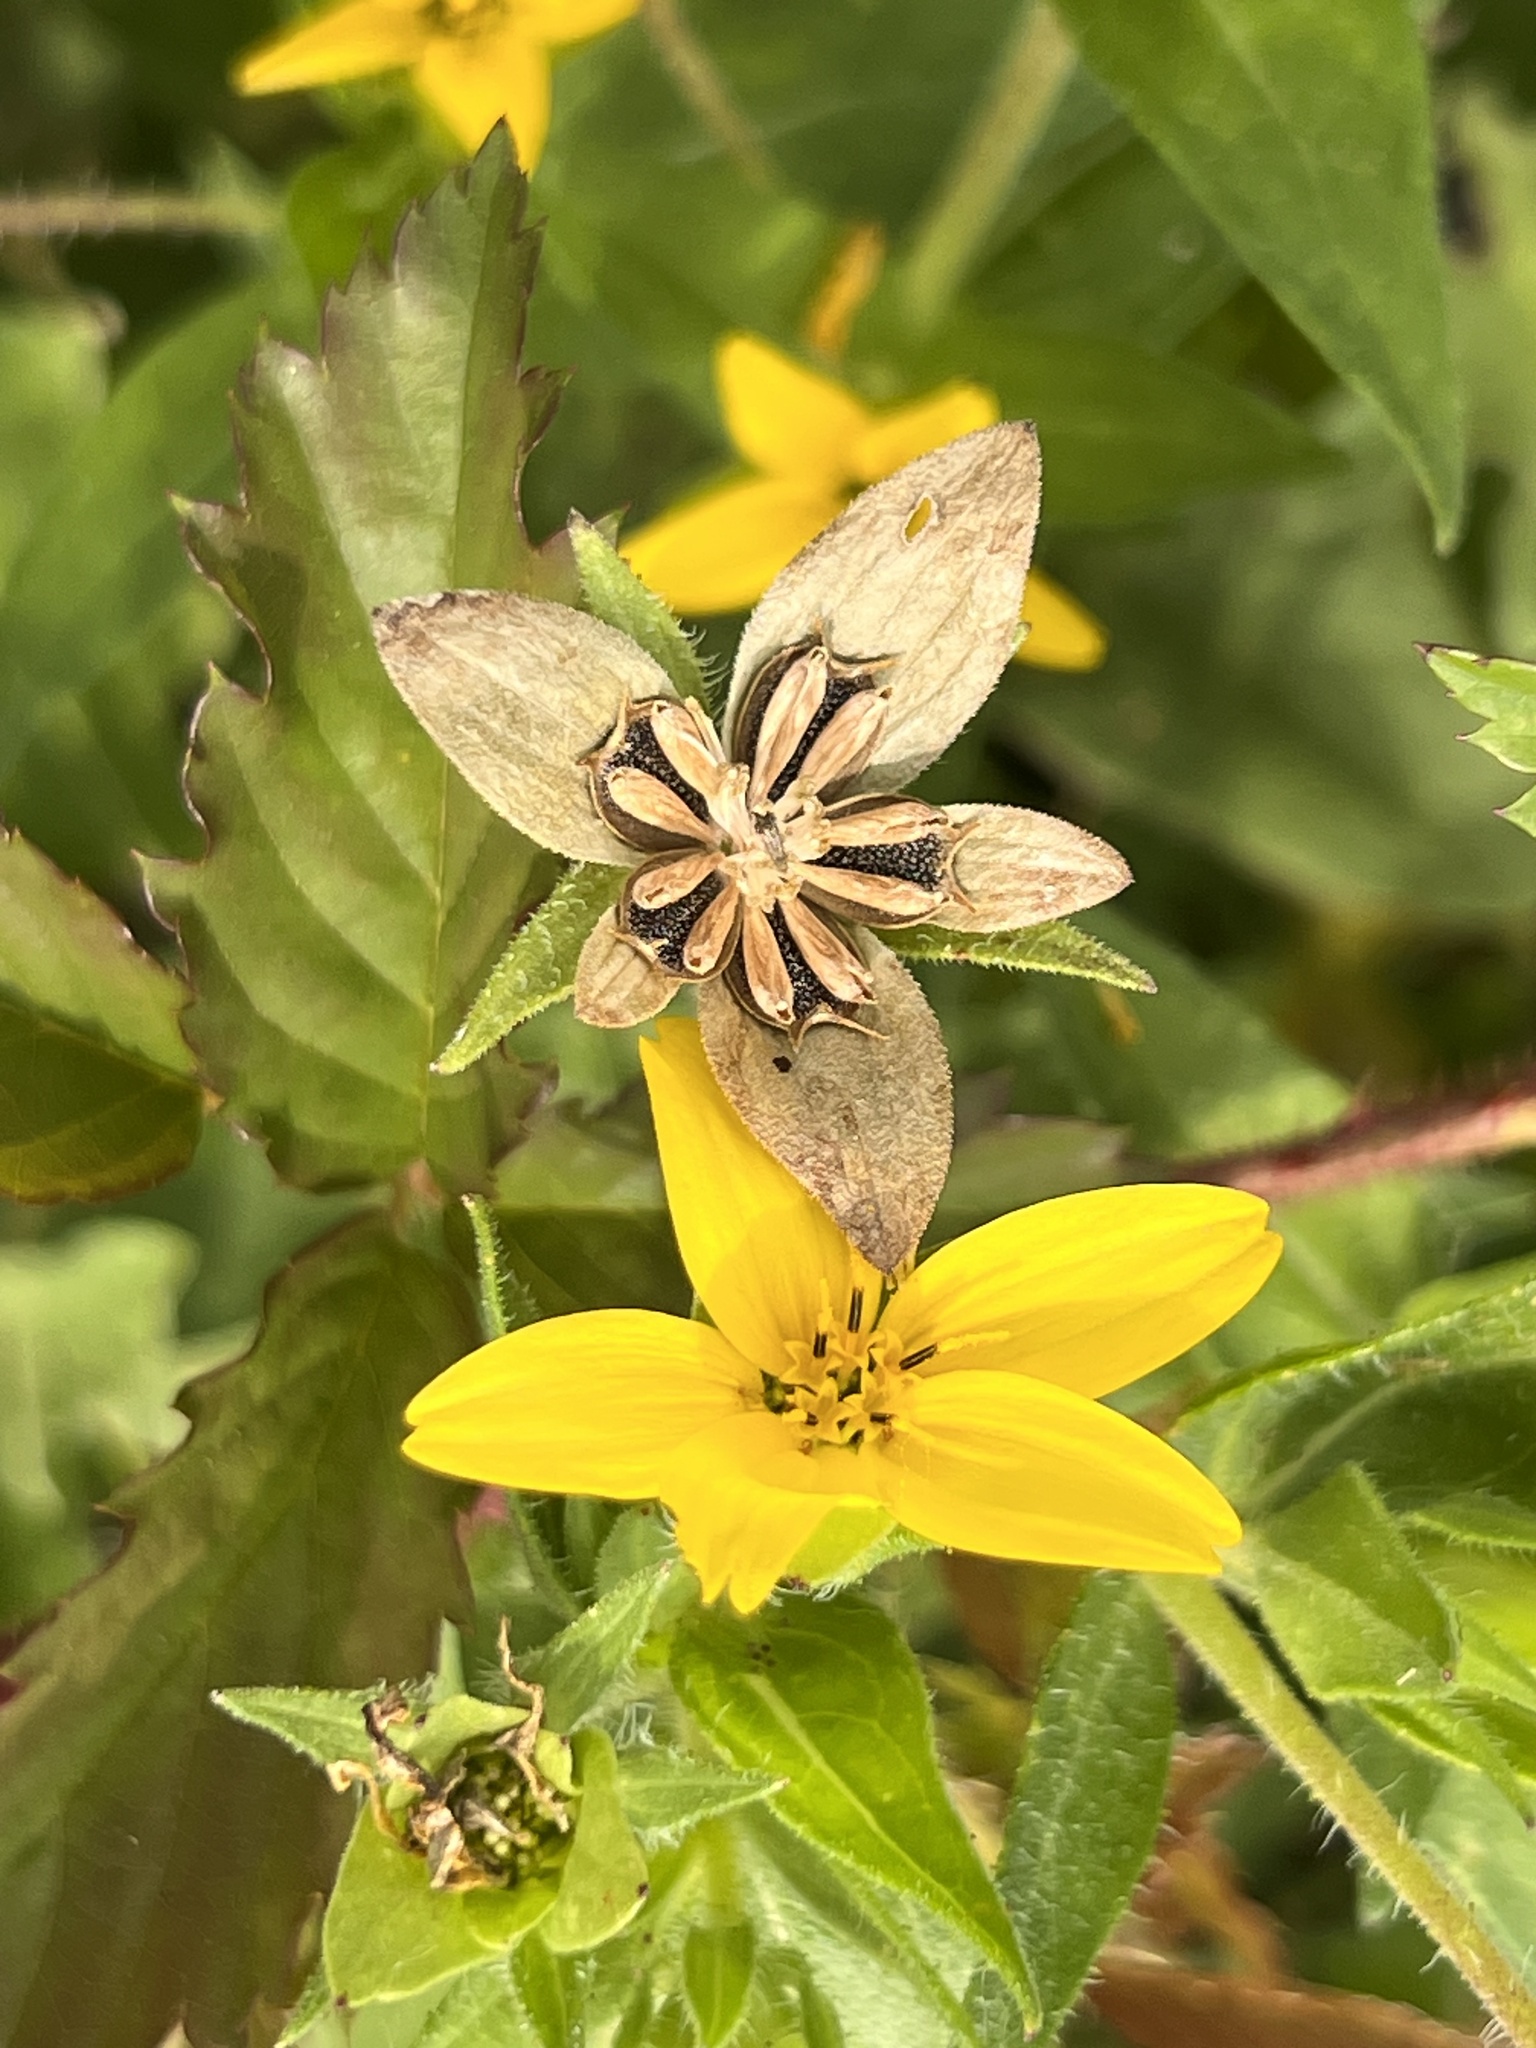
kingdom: Plantae
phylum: Tracheophyta
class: Magnoliopsida
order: Asterales
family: Asteraceae
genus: Lindheimera
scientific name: Lindheimera texana
